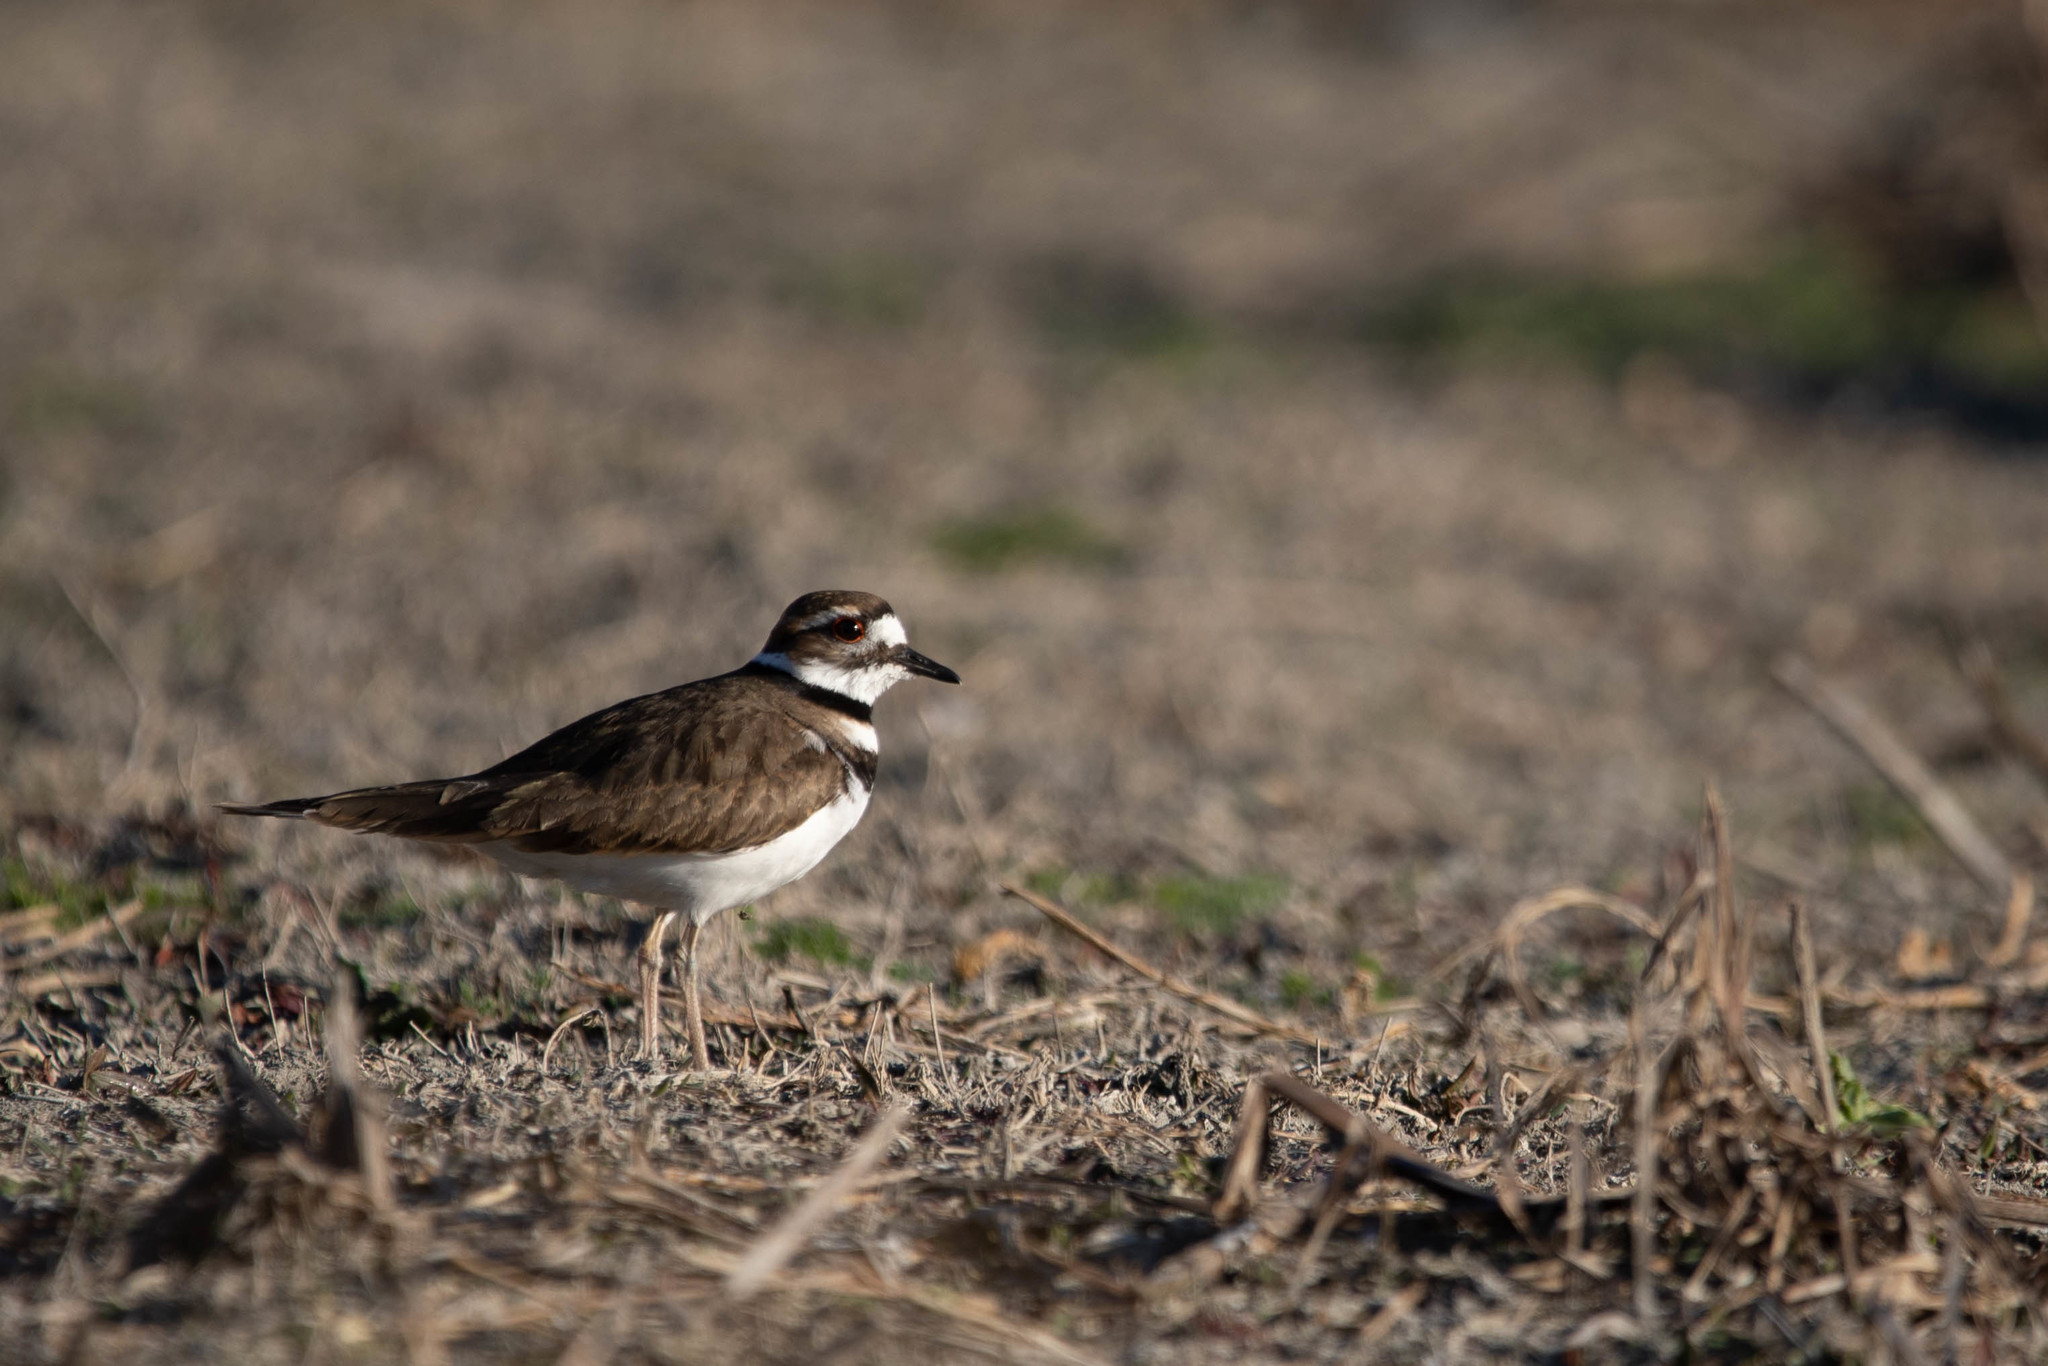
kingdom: Animalia
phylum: Chordata
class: Aves
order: Charadriiformes
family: Charadriidae
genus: Charadrius
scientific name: Charadrius vociferus
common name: Killdeer
